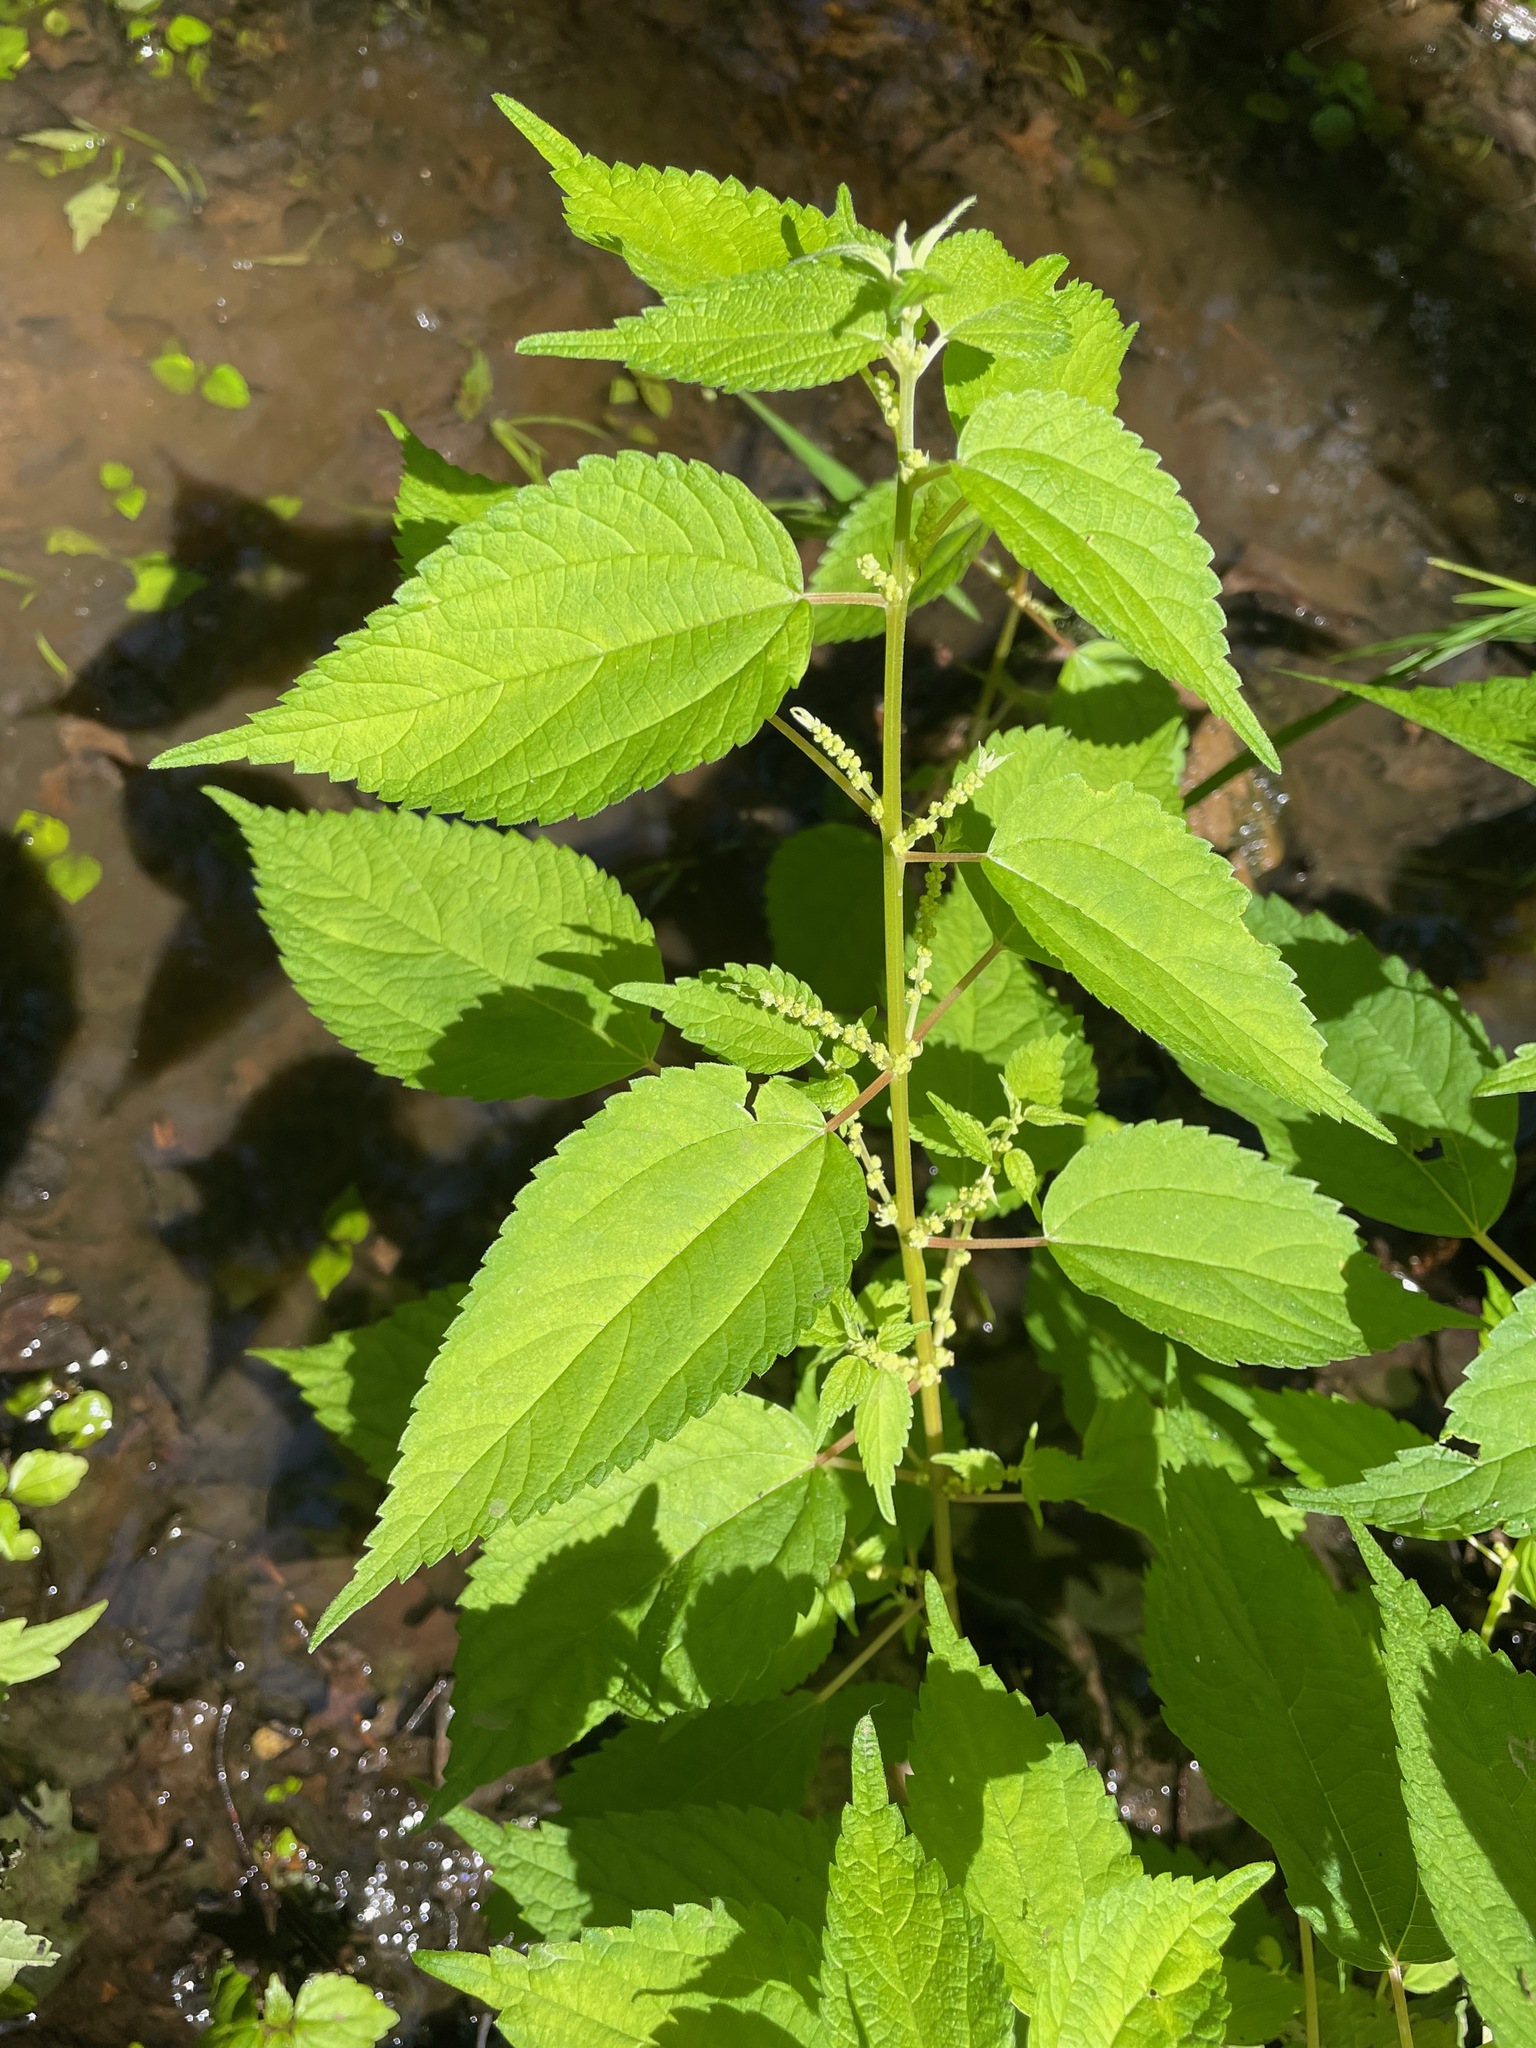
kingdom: Plantae
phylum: Tracheophyta
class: Magnoliopsida
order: Rosales
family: Urticaceae
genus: Boehmeria
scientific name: Boehmeria cylindrica
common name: Bog-hemp
